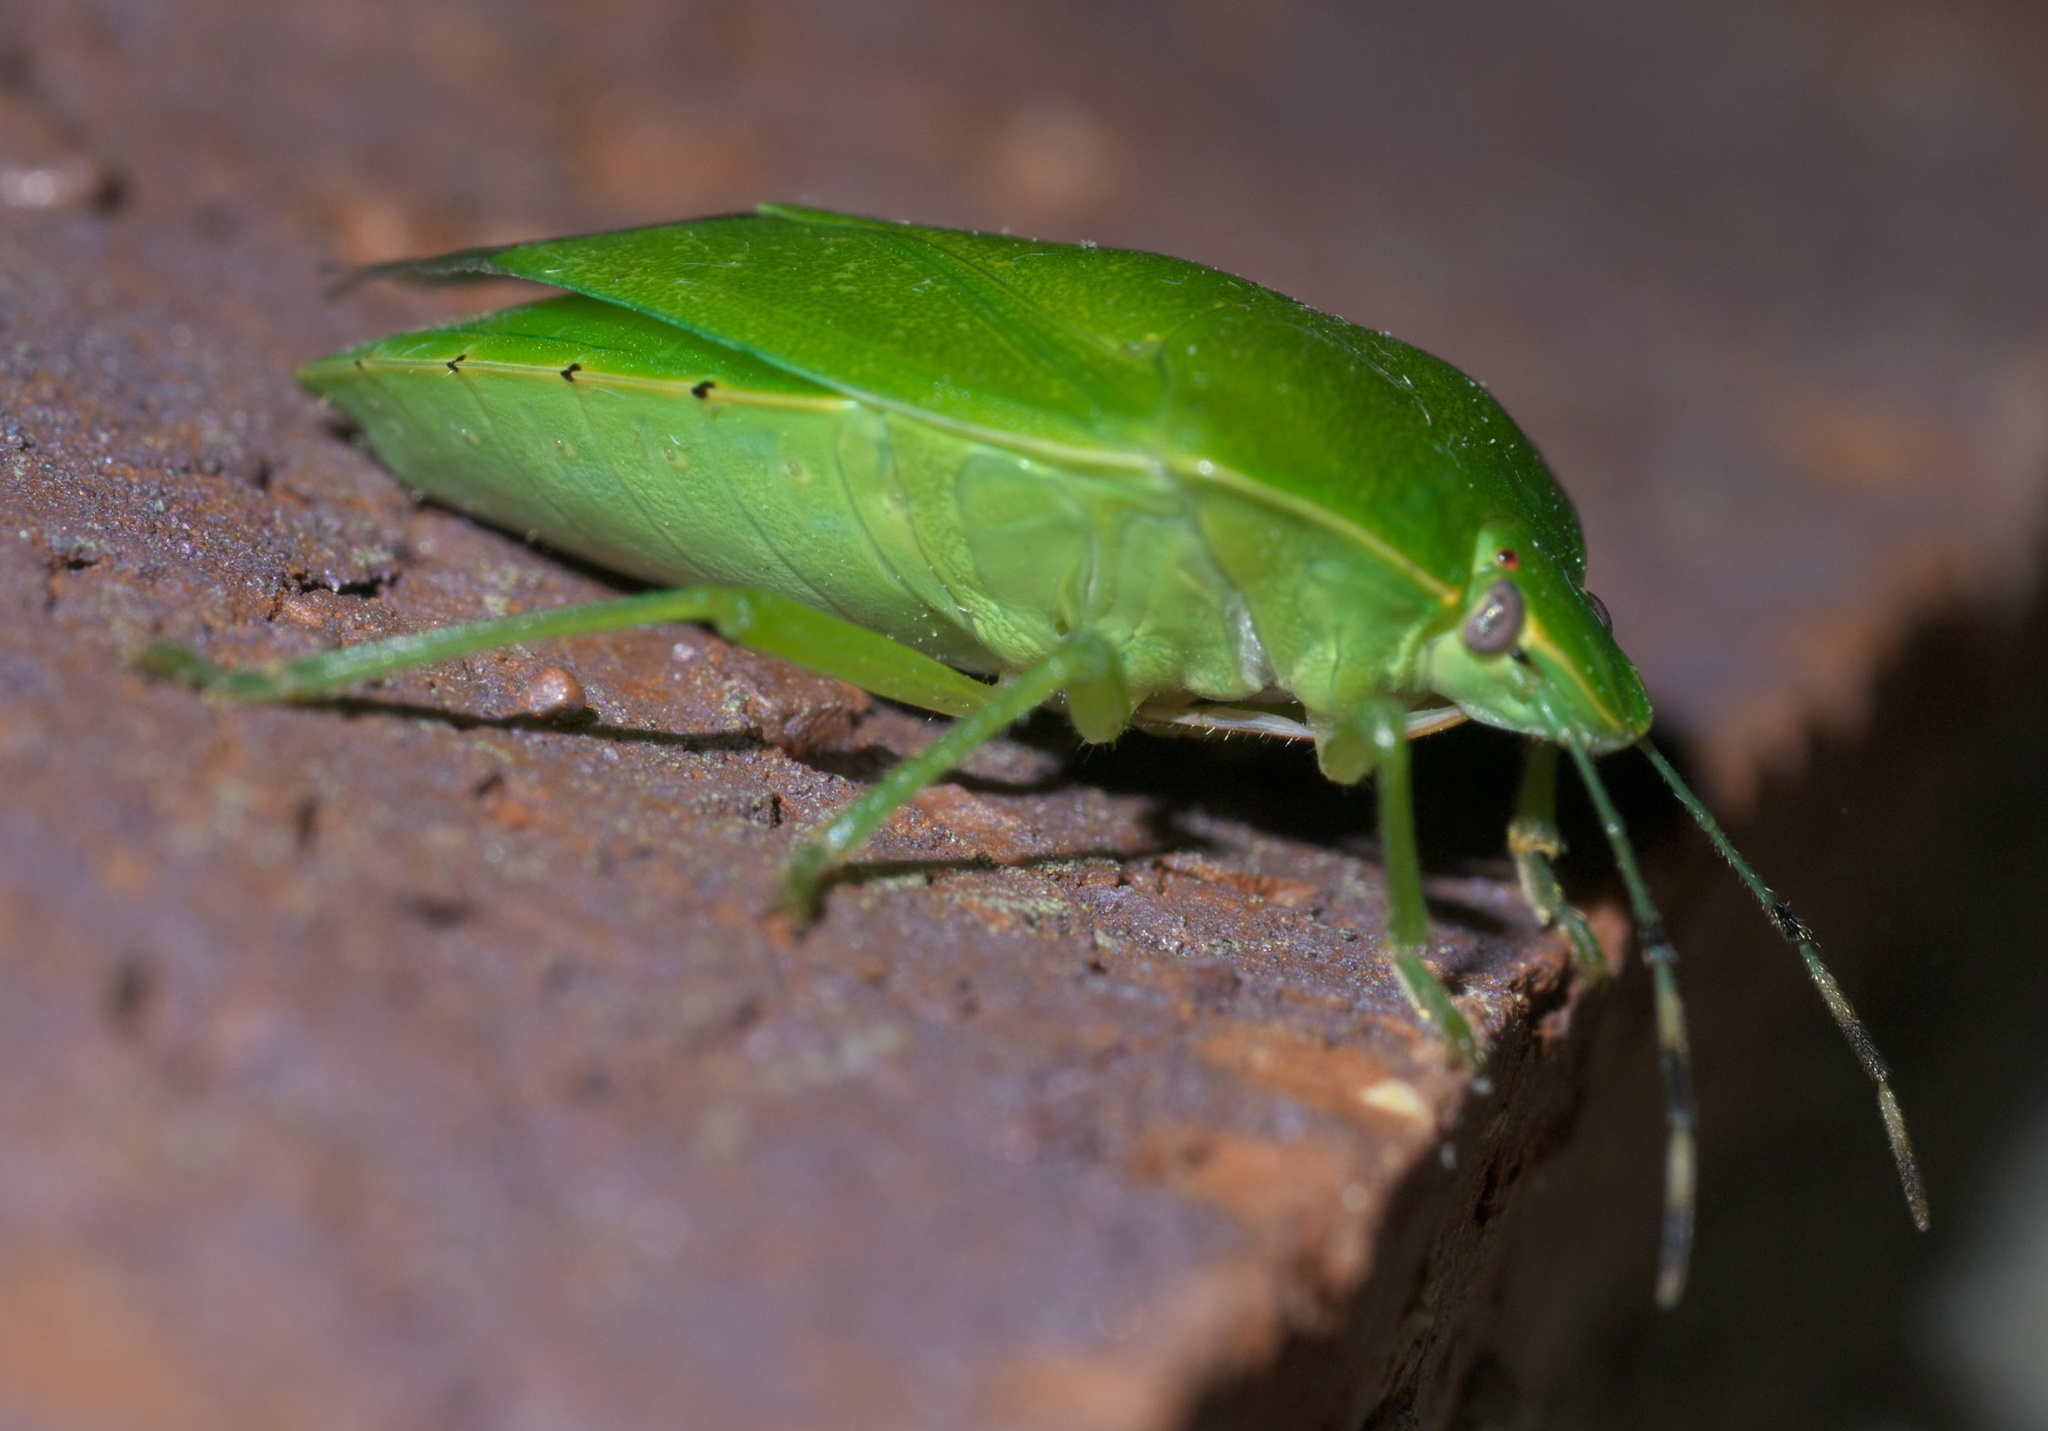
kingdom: Animalia
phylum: Arthropoda
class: Insecta
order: Hemiptera
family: Pentatomidae
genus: Chinavia
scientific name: Chinavia hilaris
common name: Green stink bug
